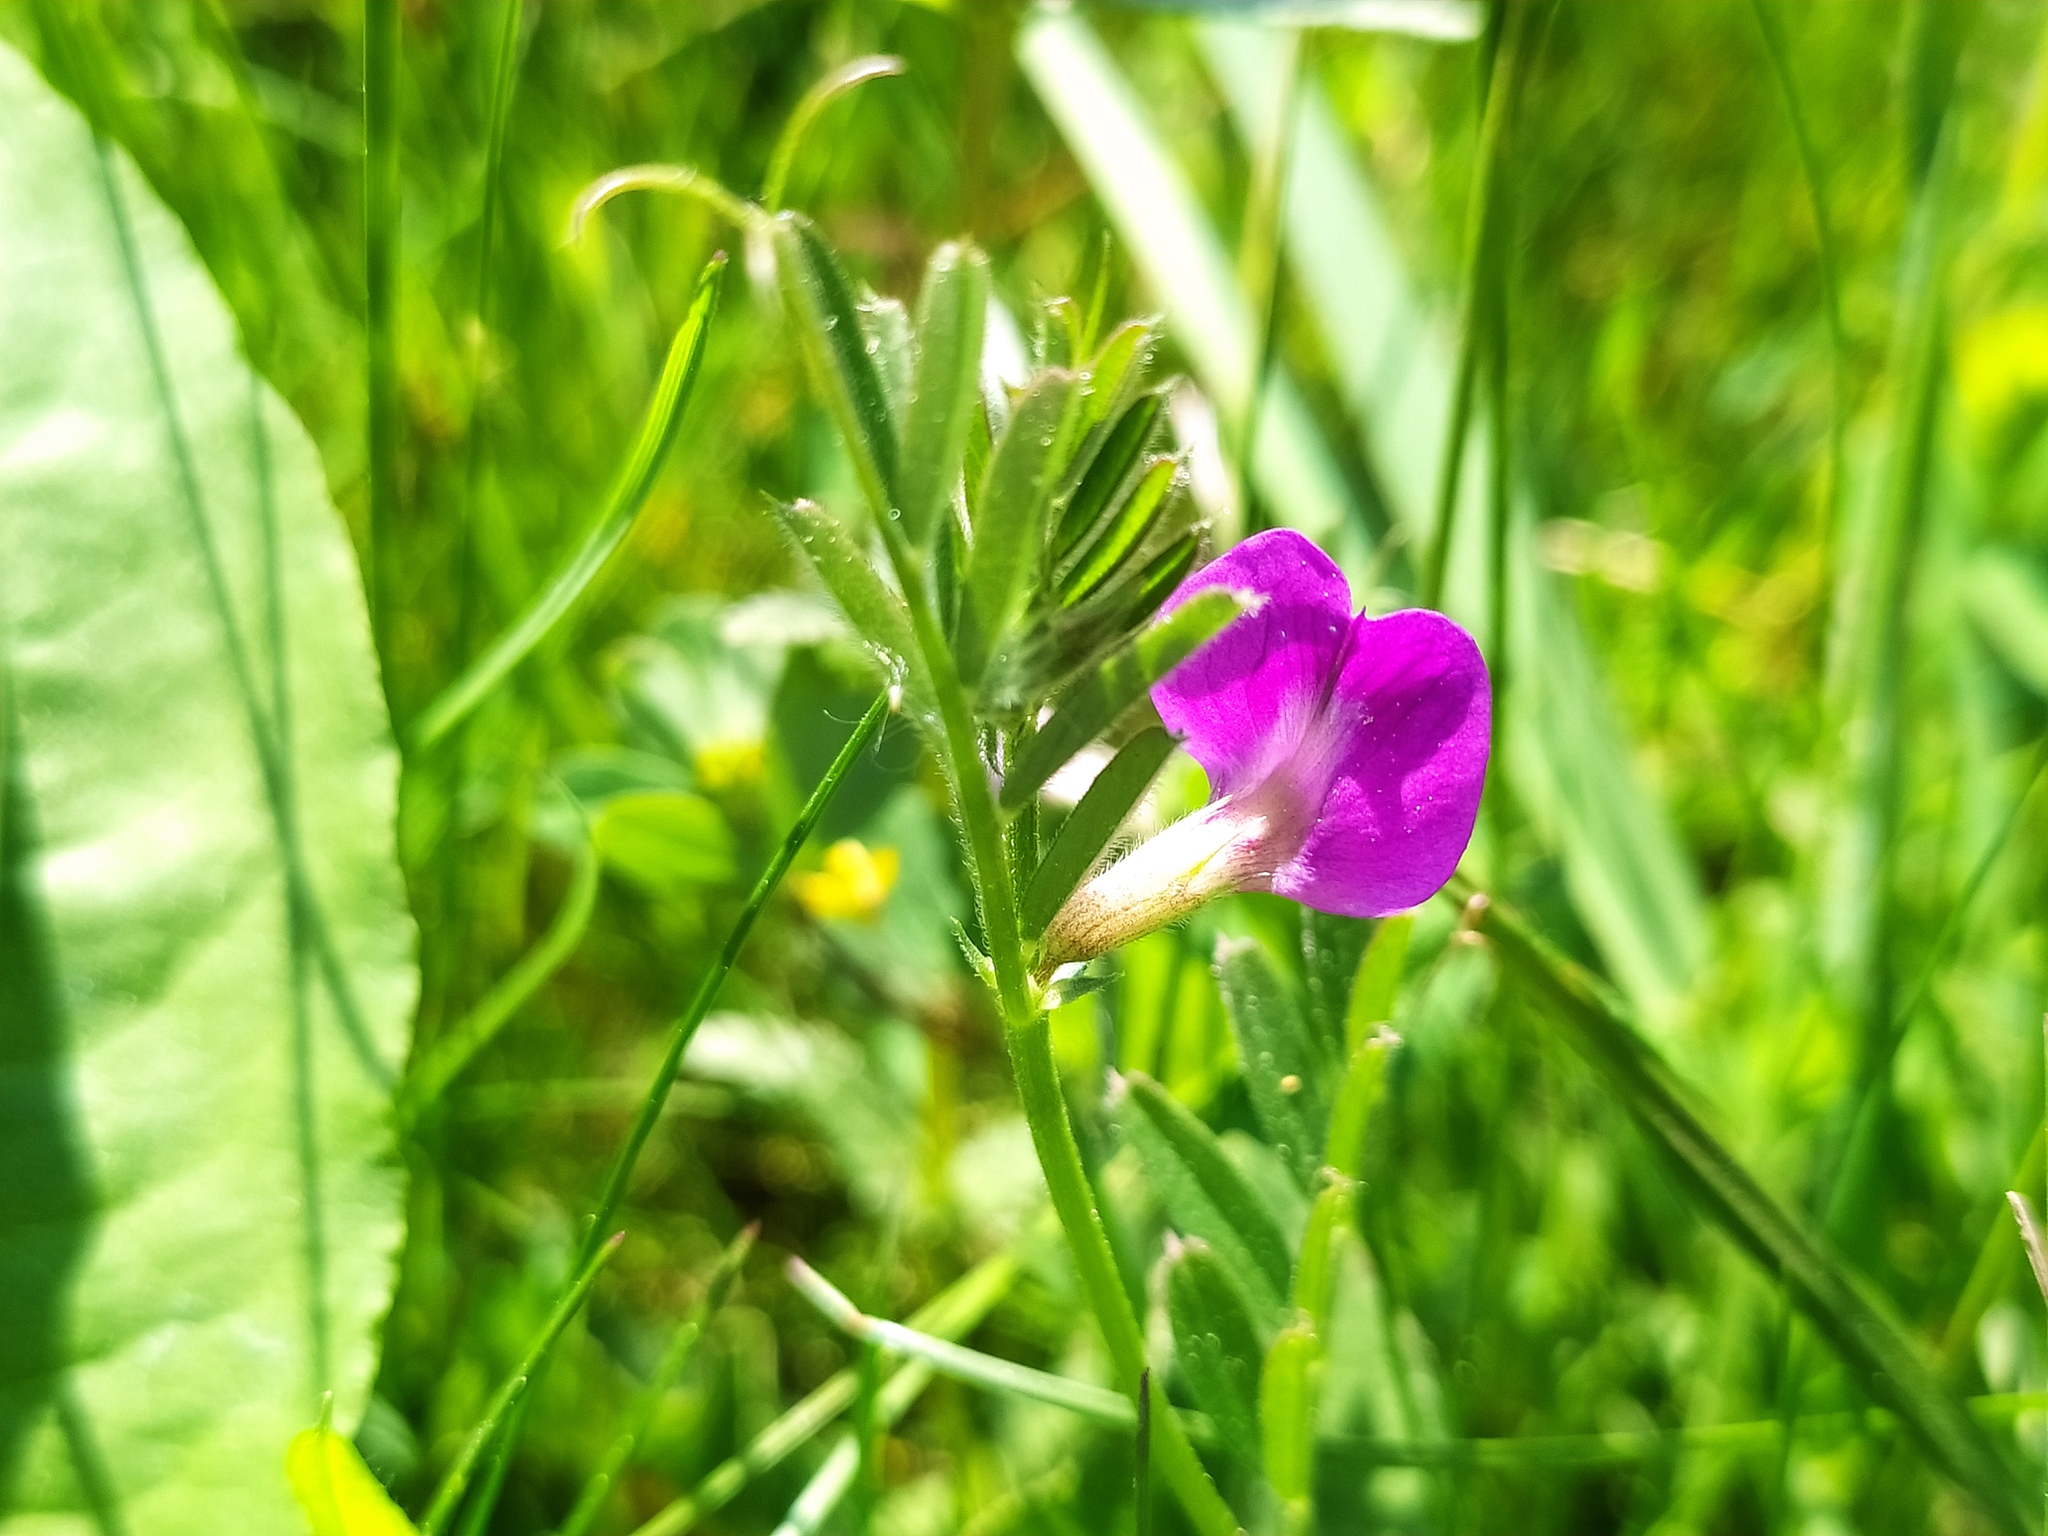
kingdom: Plantae
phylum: Tracheophyta
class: Magnoliopsida
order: Fabales
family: Fabaceae
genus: Vicia
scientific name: Vicia sativa
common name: Garden vetch
